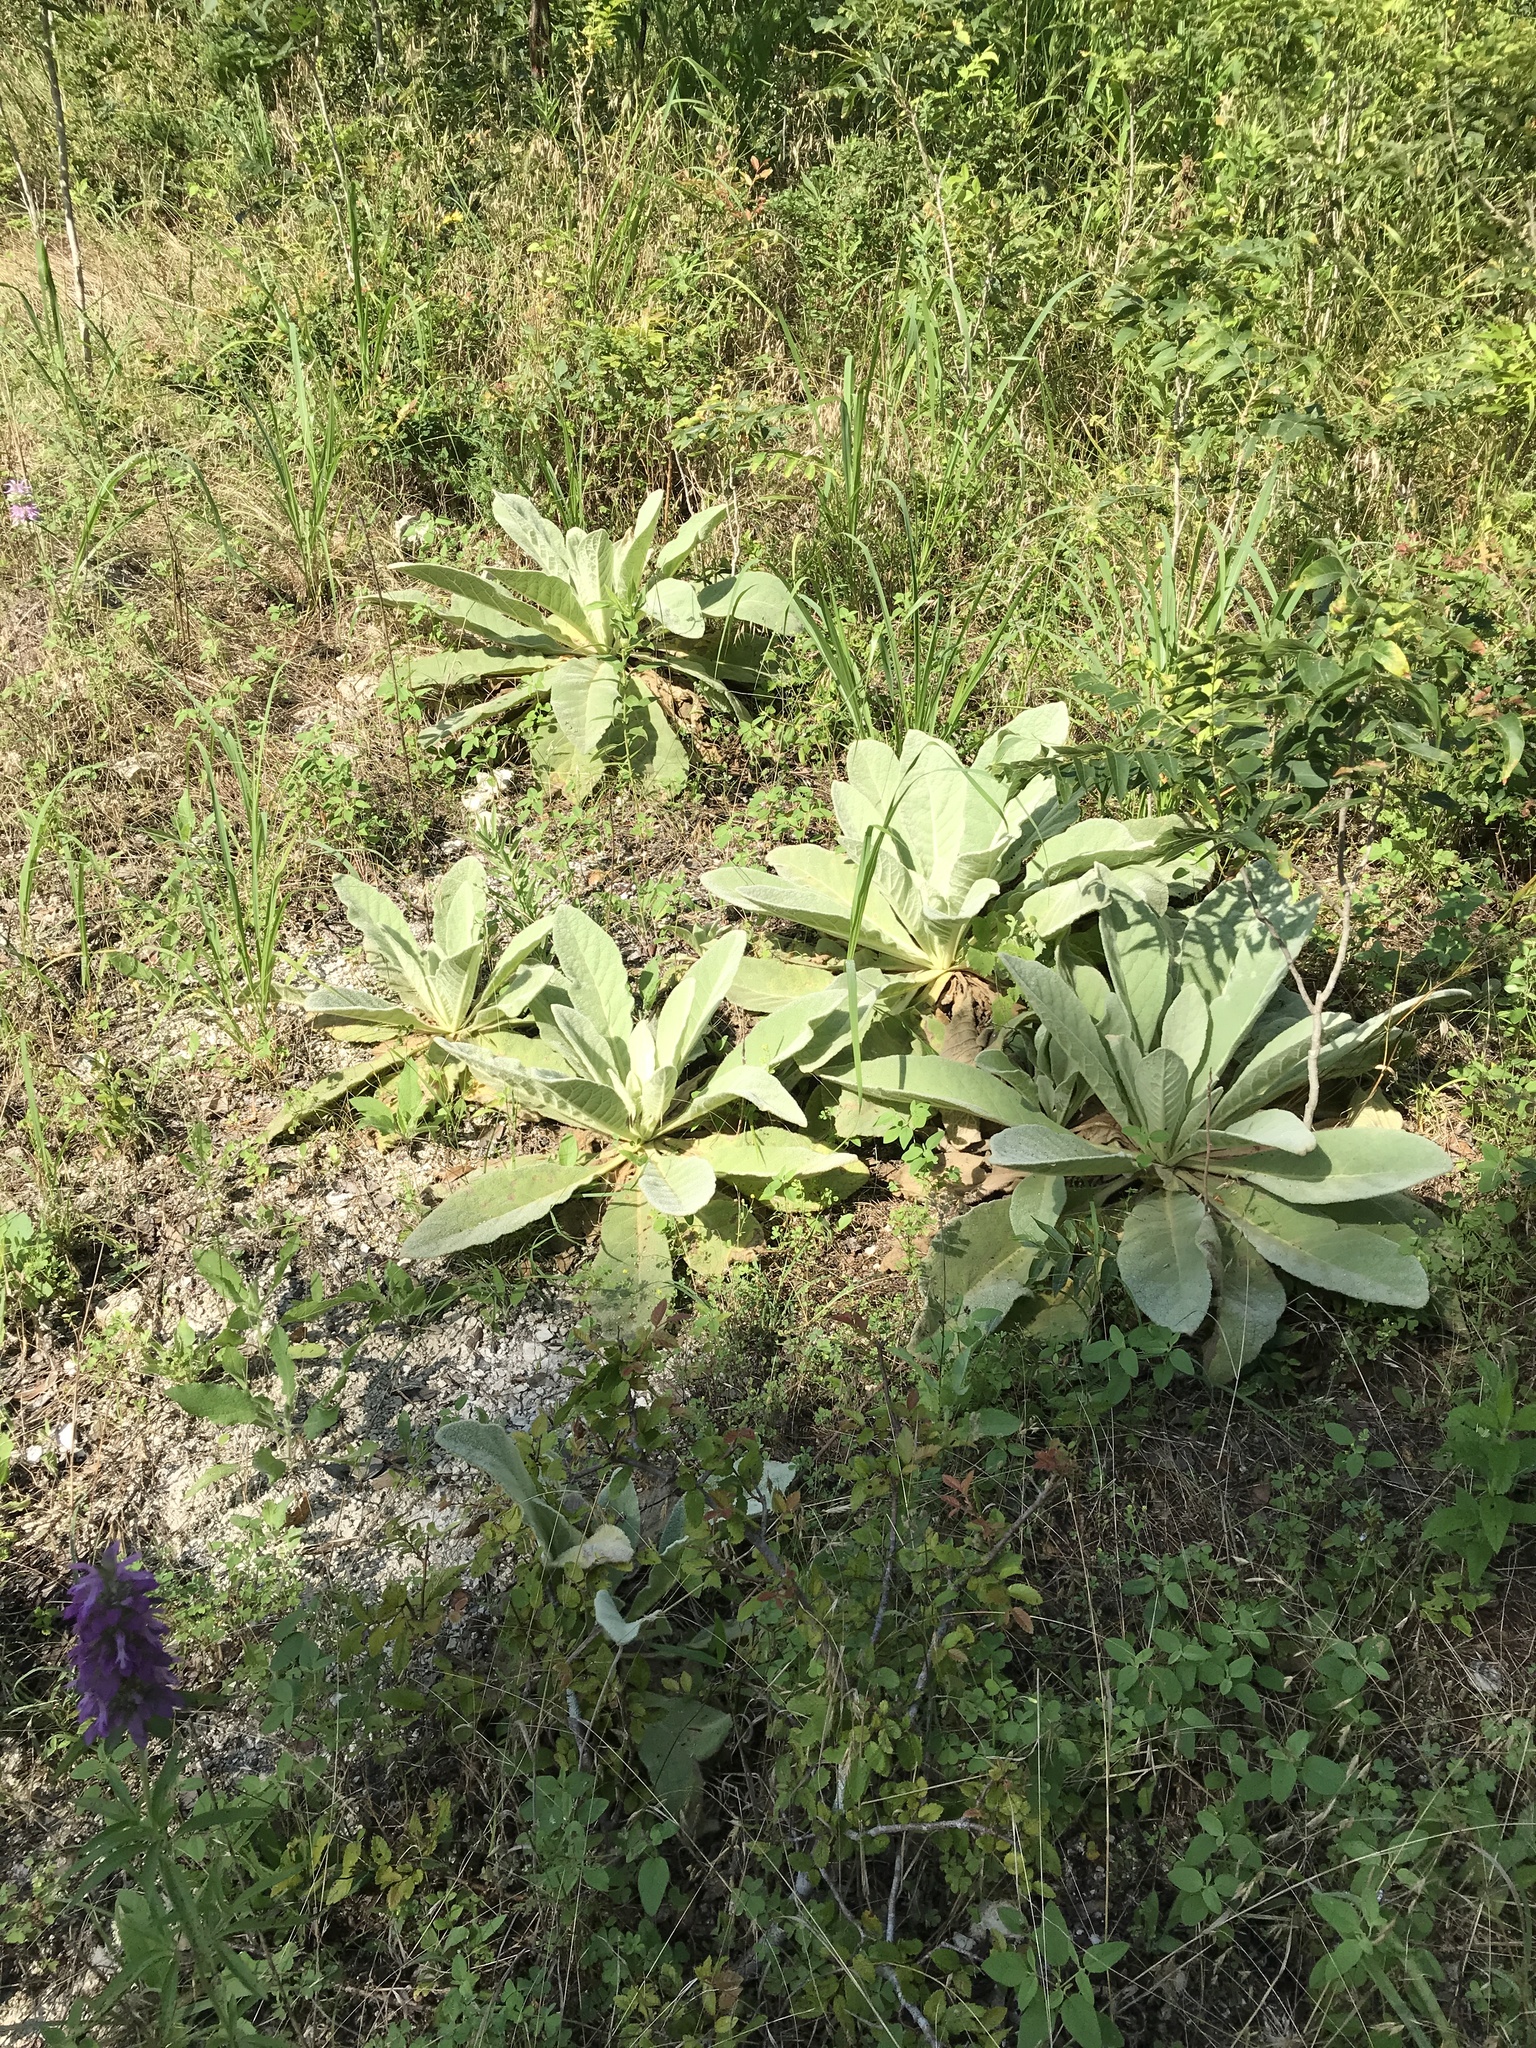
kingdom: Plantae
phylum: Tracheophyta
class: Magnoliopsida
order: Lamiales
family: Scrophulariaceae
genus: Verbascum
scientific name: Verbascum thapsus
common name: Common mullein
